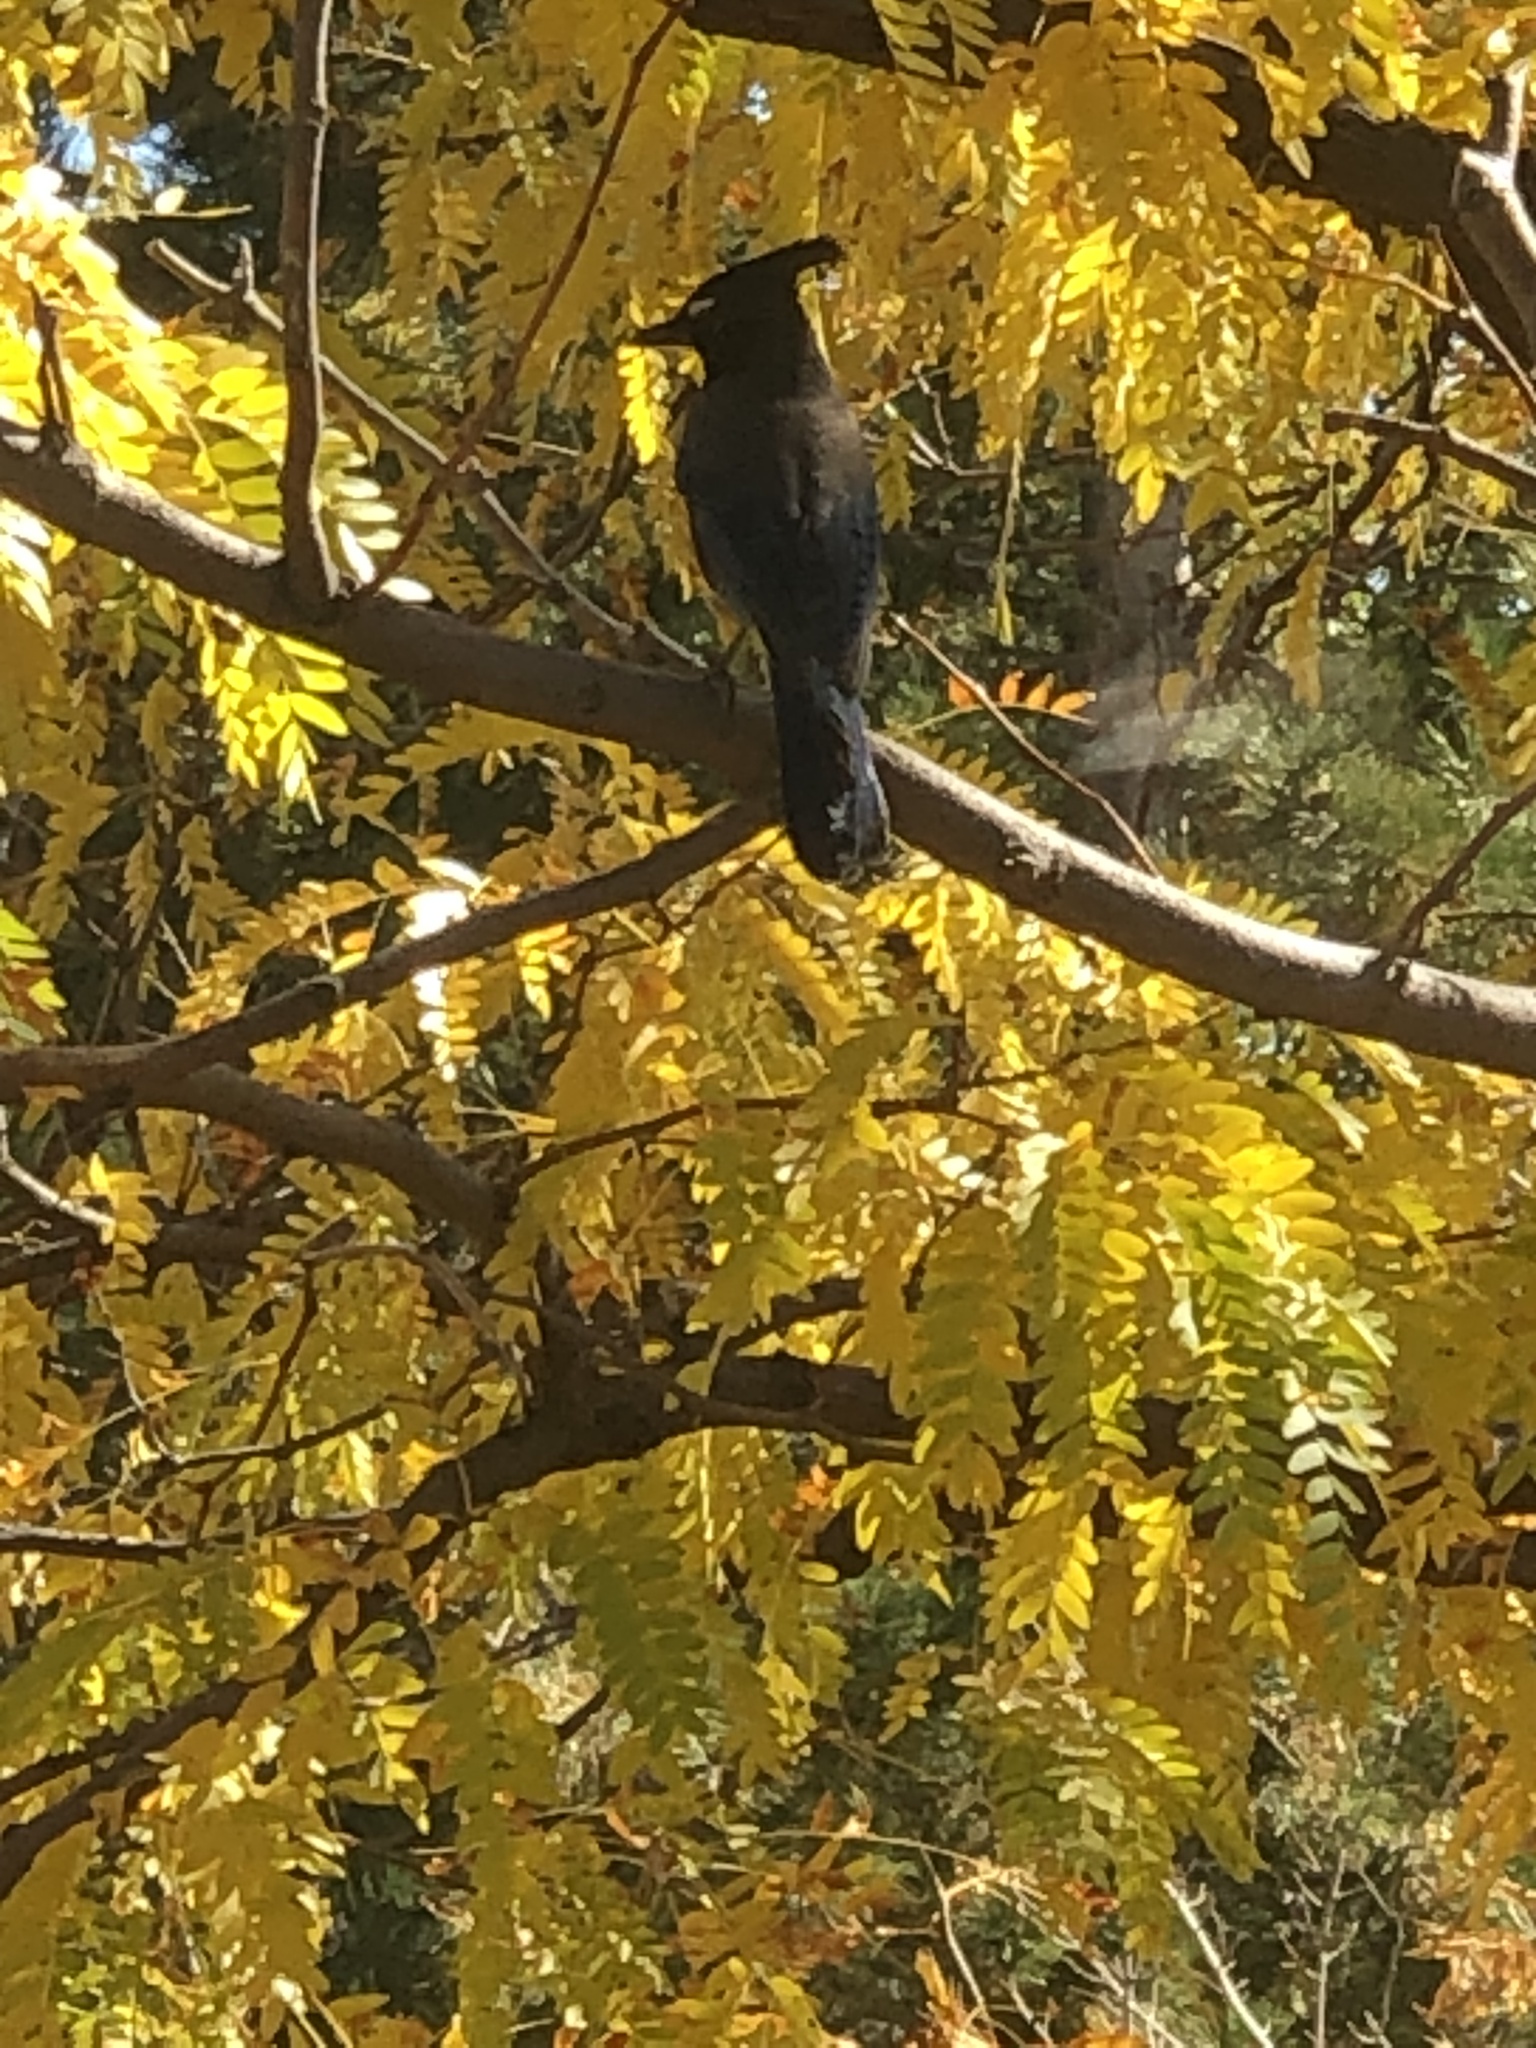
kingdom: Animalia
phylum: Chordata
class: Aves
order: Passeriformes
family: Corvidae
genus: Cyanocitta
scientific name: Cyanocitta stelleri
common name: Steller's jay
